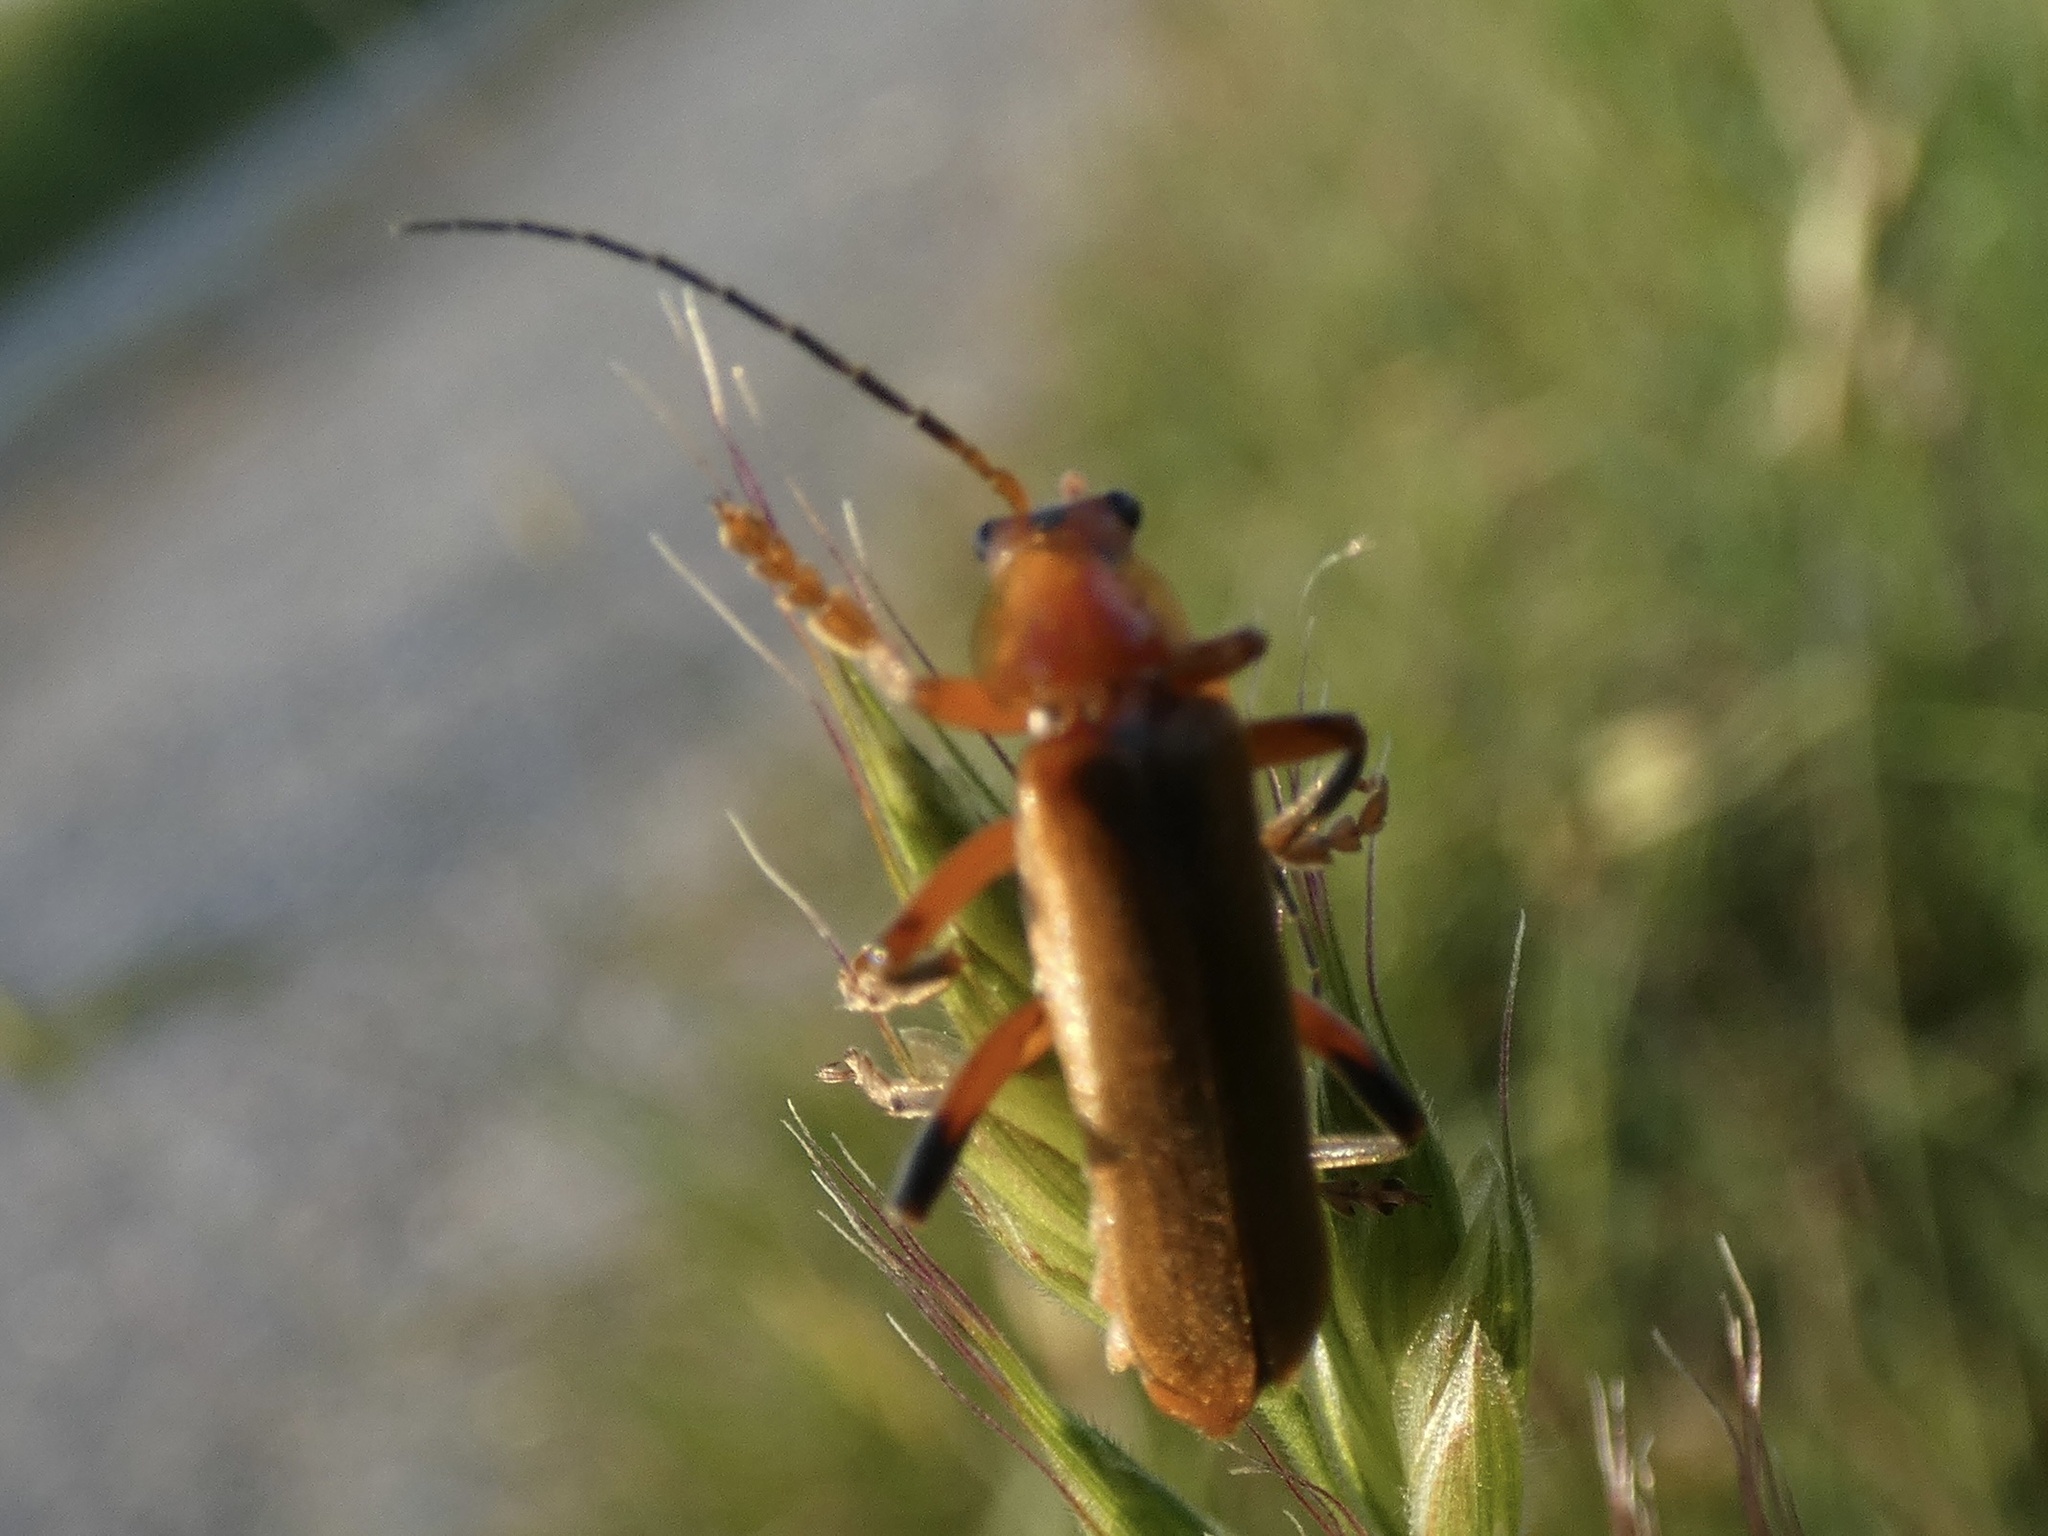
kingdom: Animalia
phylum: Arthropoda
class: Insecta
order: Coleoptera
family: Cantharidae
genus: Cantharis
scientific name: Cantharis livida
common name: Livid soldier beetle
